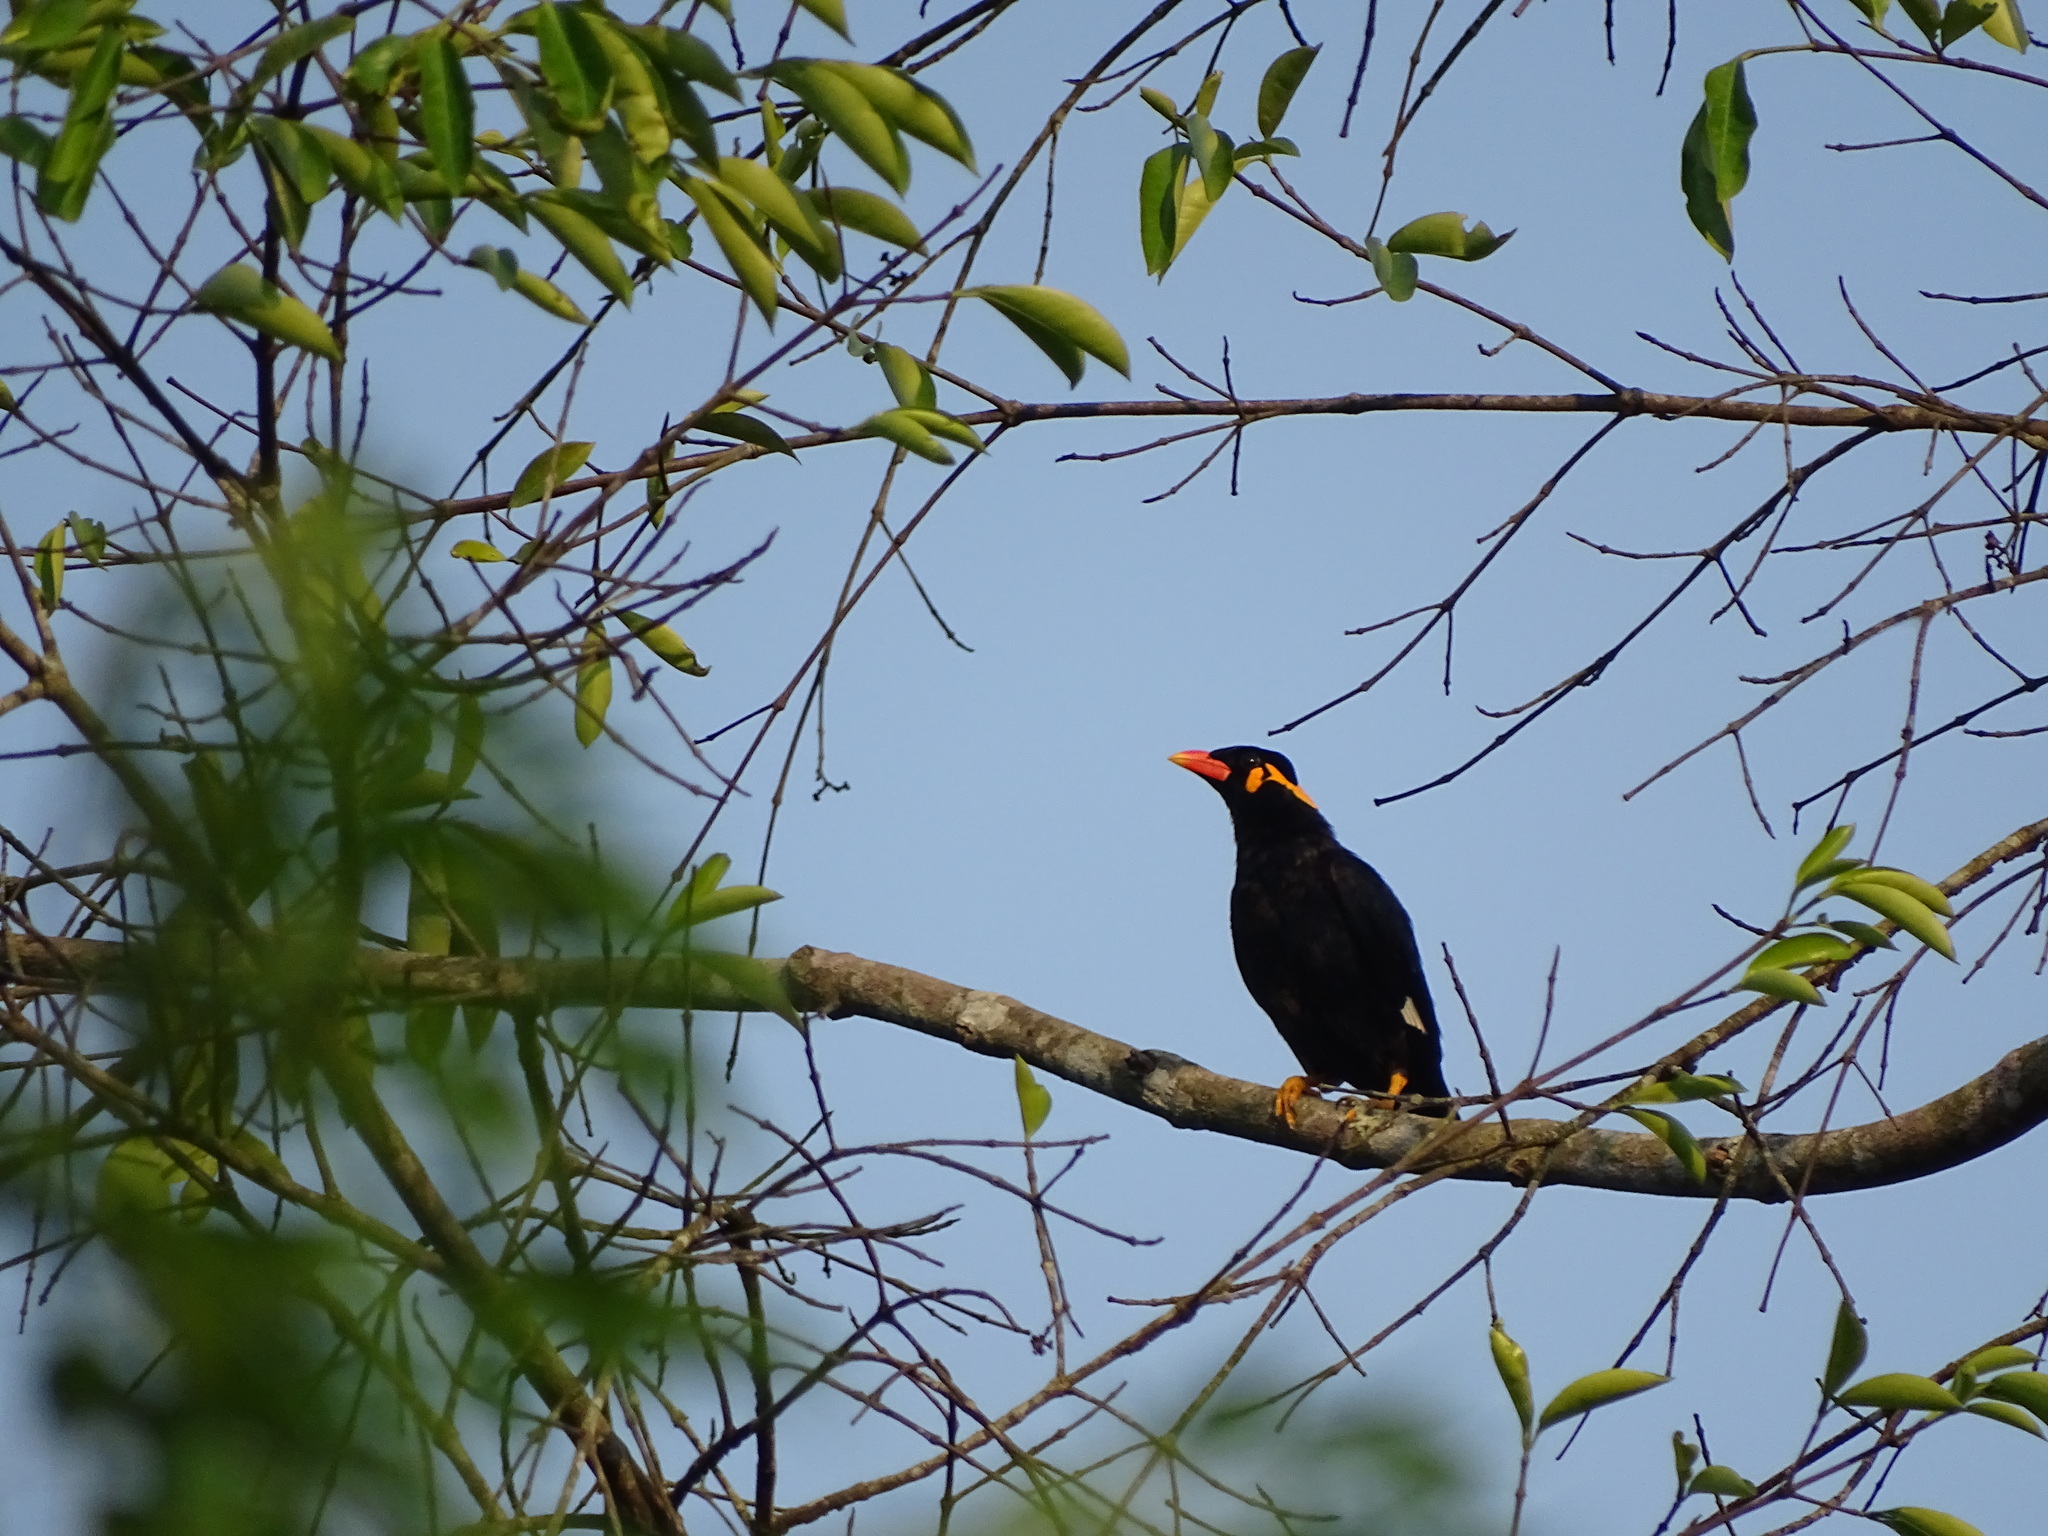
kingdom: Animalia
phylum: Chordata
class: Aves
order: Passeriformes
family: Sturnidae
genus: Gracula
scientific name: Gracula religiosa
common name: Common hill myna
